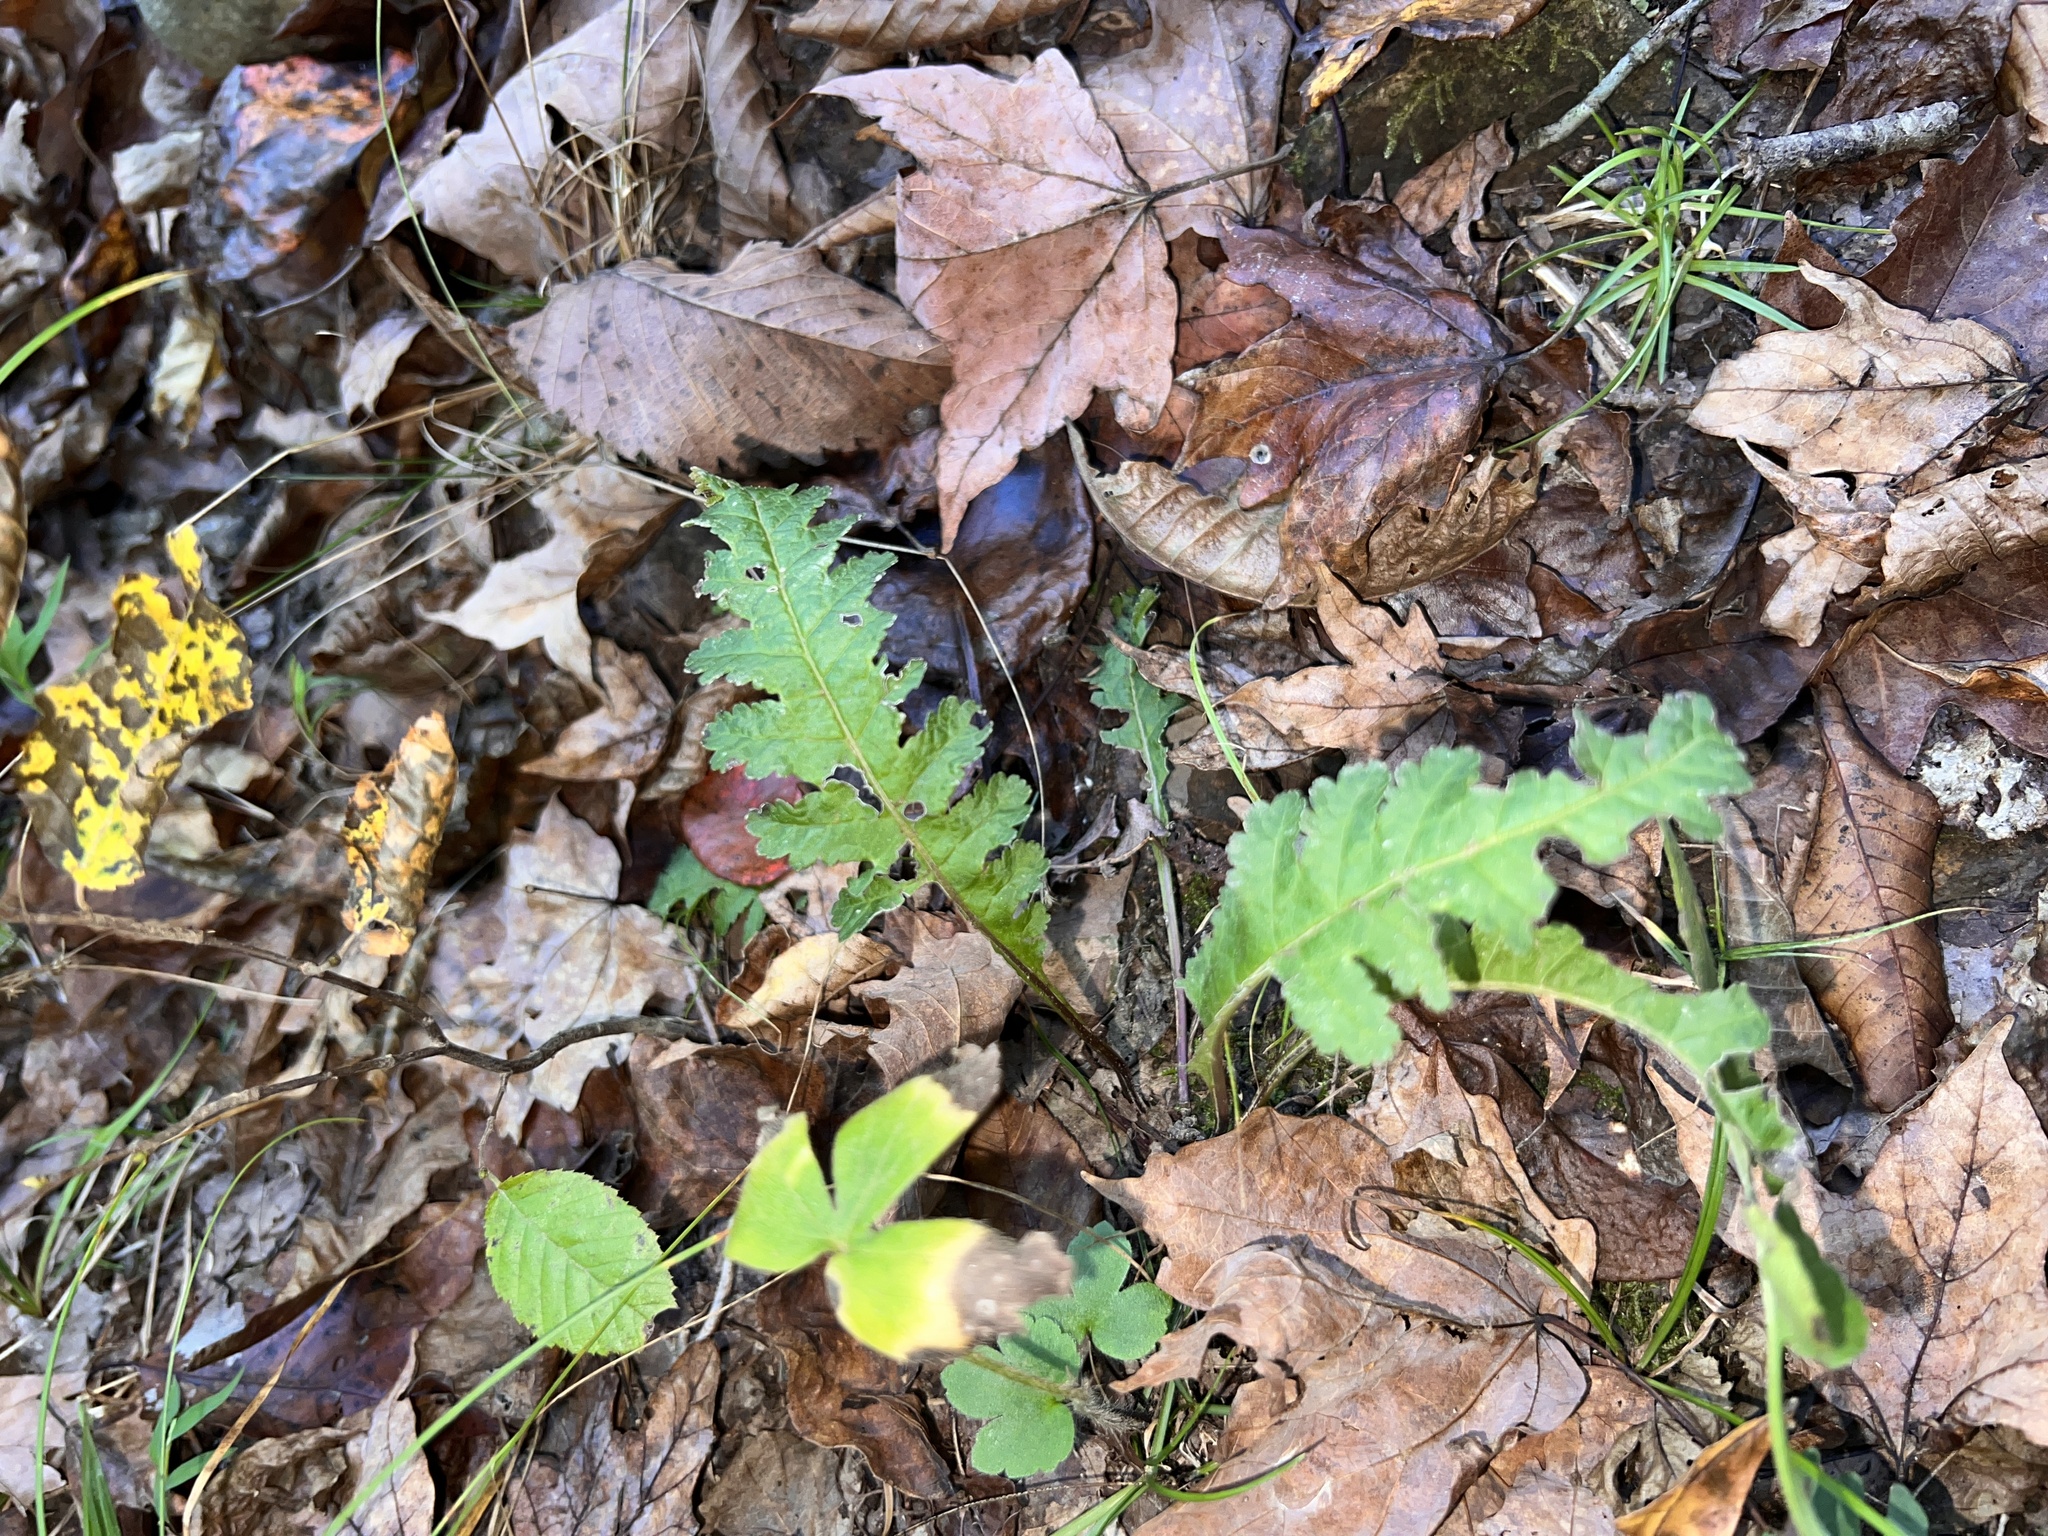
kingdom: Plantae
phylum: Tracheophyta
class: Magnoliopsida
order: Lamiales
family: Orobanchaceae
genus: Pedicularis
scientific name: Pedicularis canadensis
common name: Early lousewort
